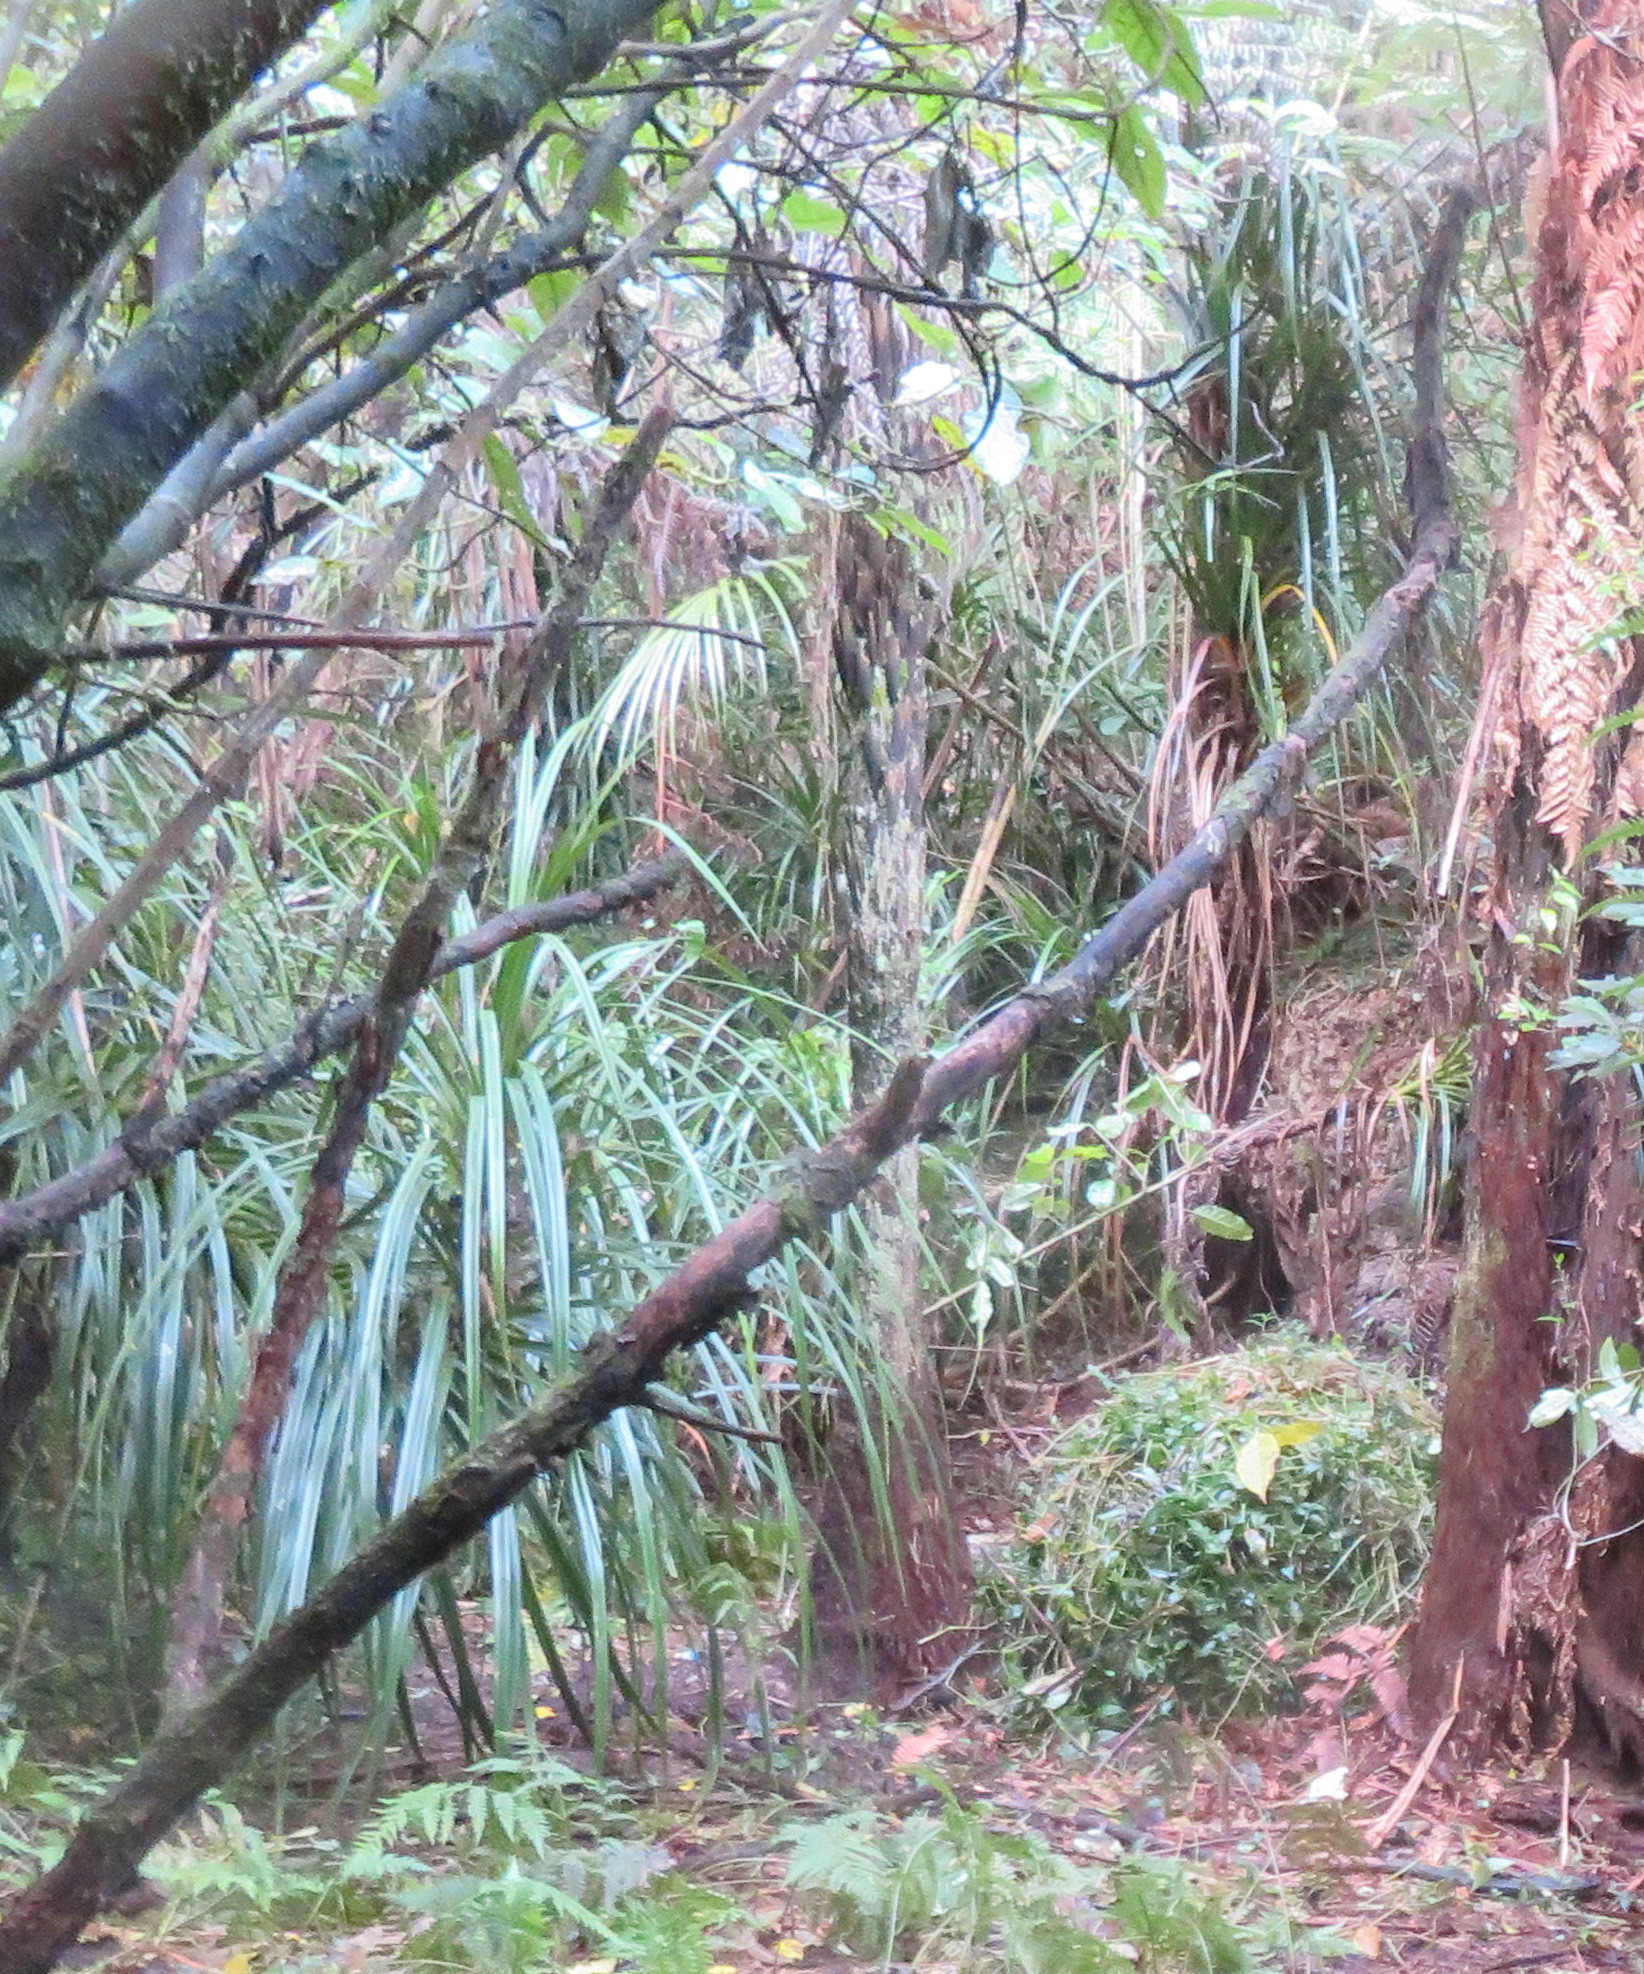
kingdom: Plantae
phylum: Tracheophyta
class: Liliopsida
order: Pandanales
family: Pandanaceae
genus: Freycinetia
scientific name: Freycinetia banksii
